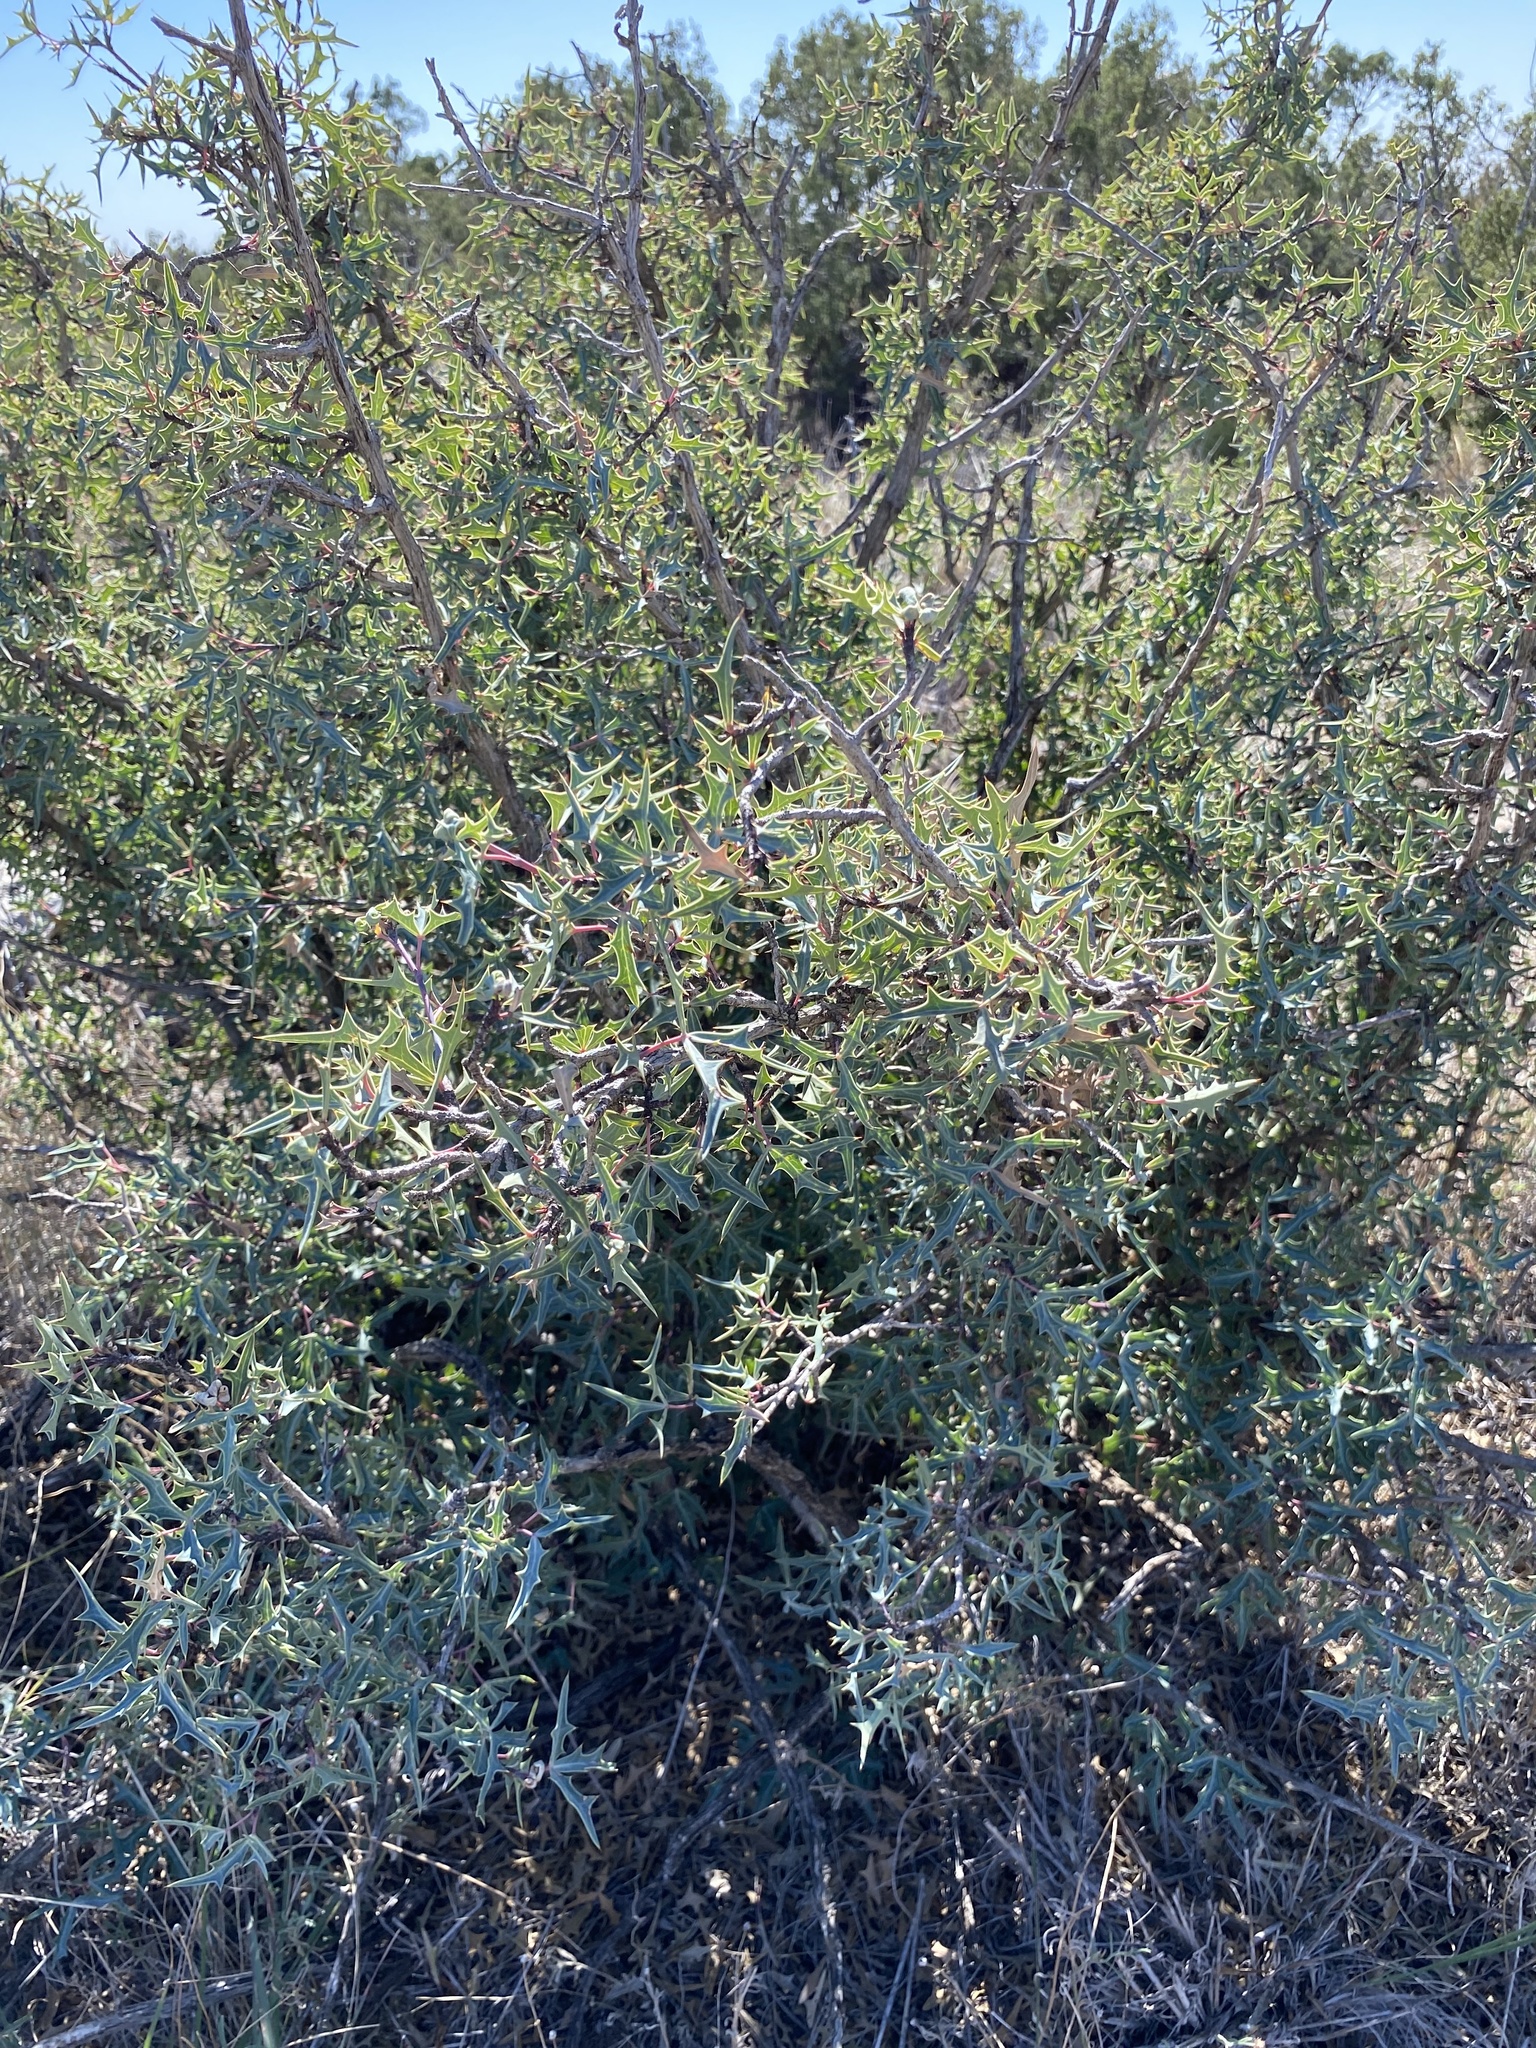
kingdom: Plantae
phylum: Tracheophyta
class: Magnoliopsida
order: Ranunculales
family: Berberidaceae
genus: Alloberberis
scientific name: Alloberberis trifoliolata
